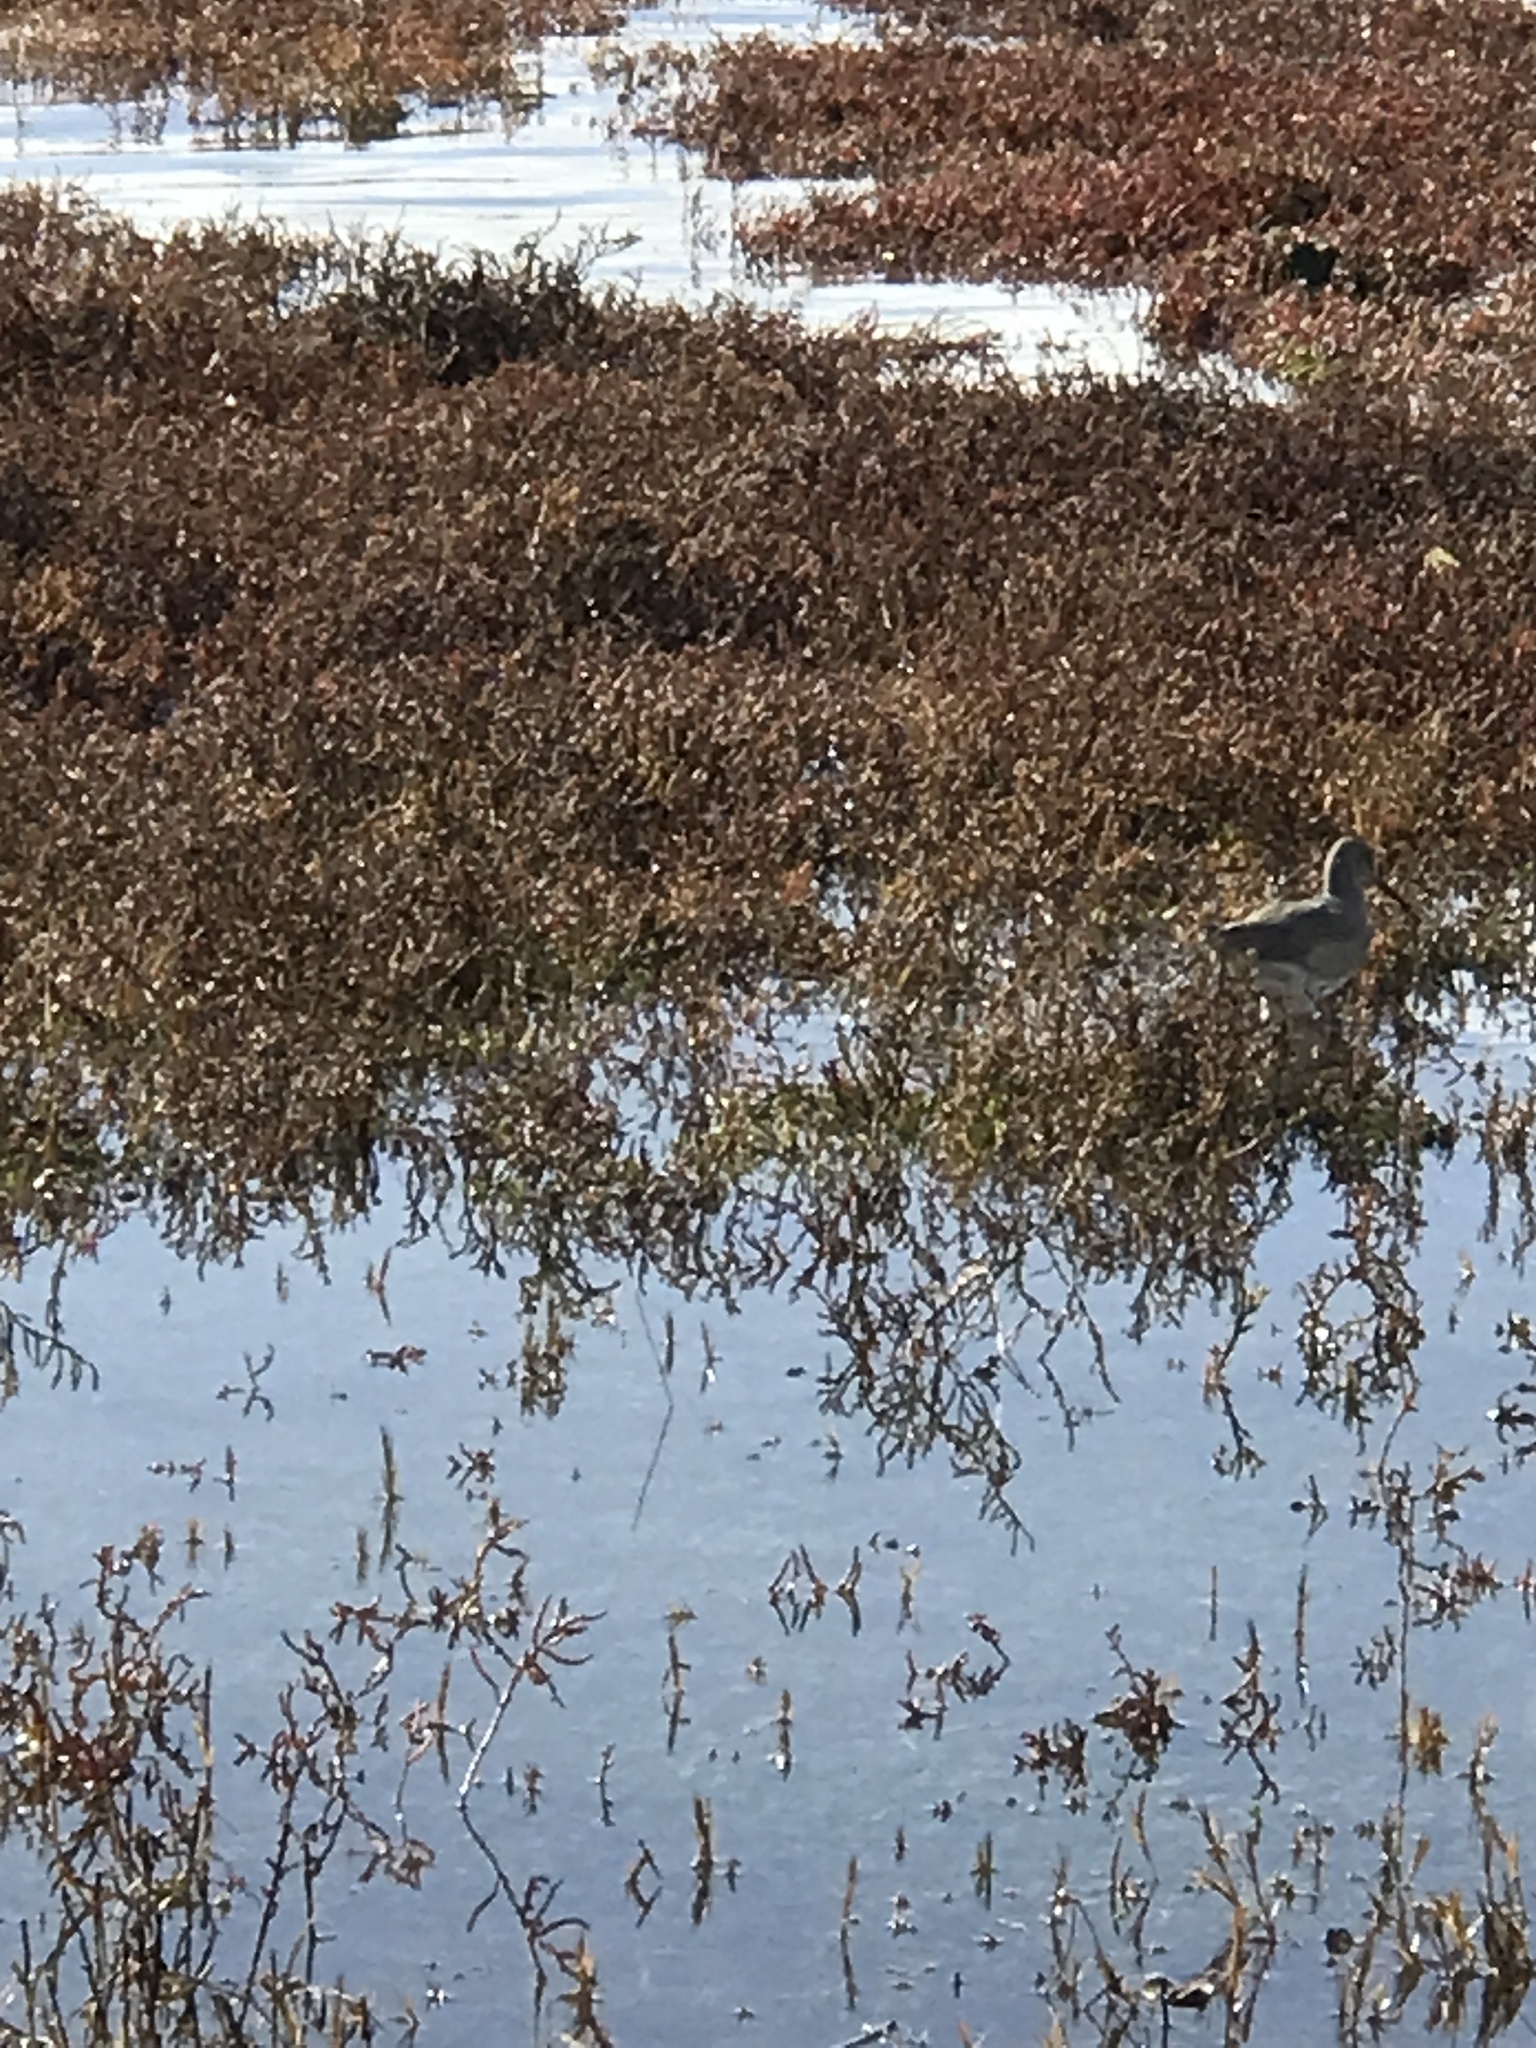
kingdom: Animalia
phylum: Chordata
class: Aves
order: Charadriiformes
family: Scolopacidae
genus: Tringa
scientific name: Tringa semipalmata
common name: Willet
